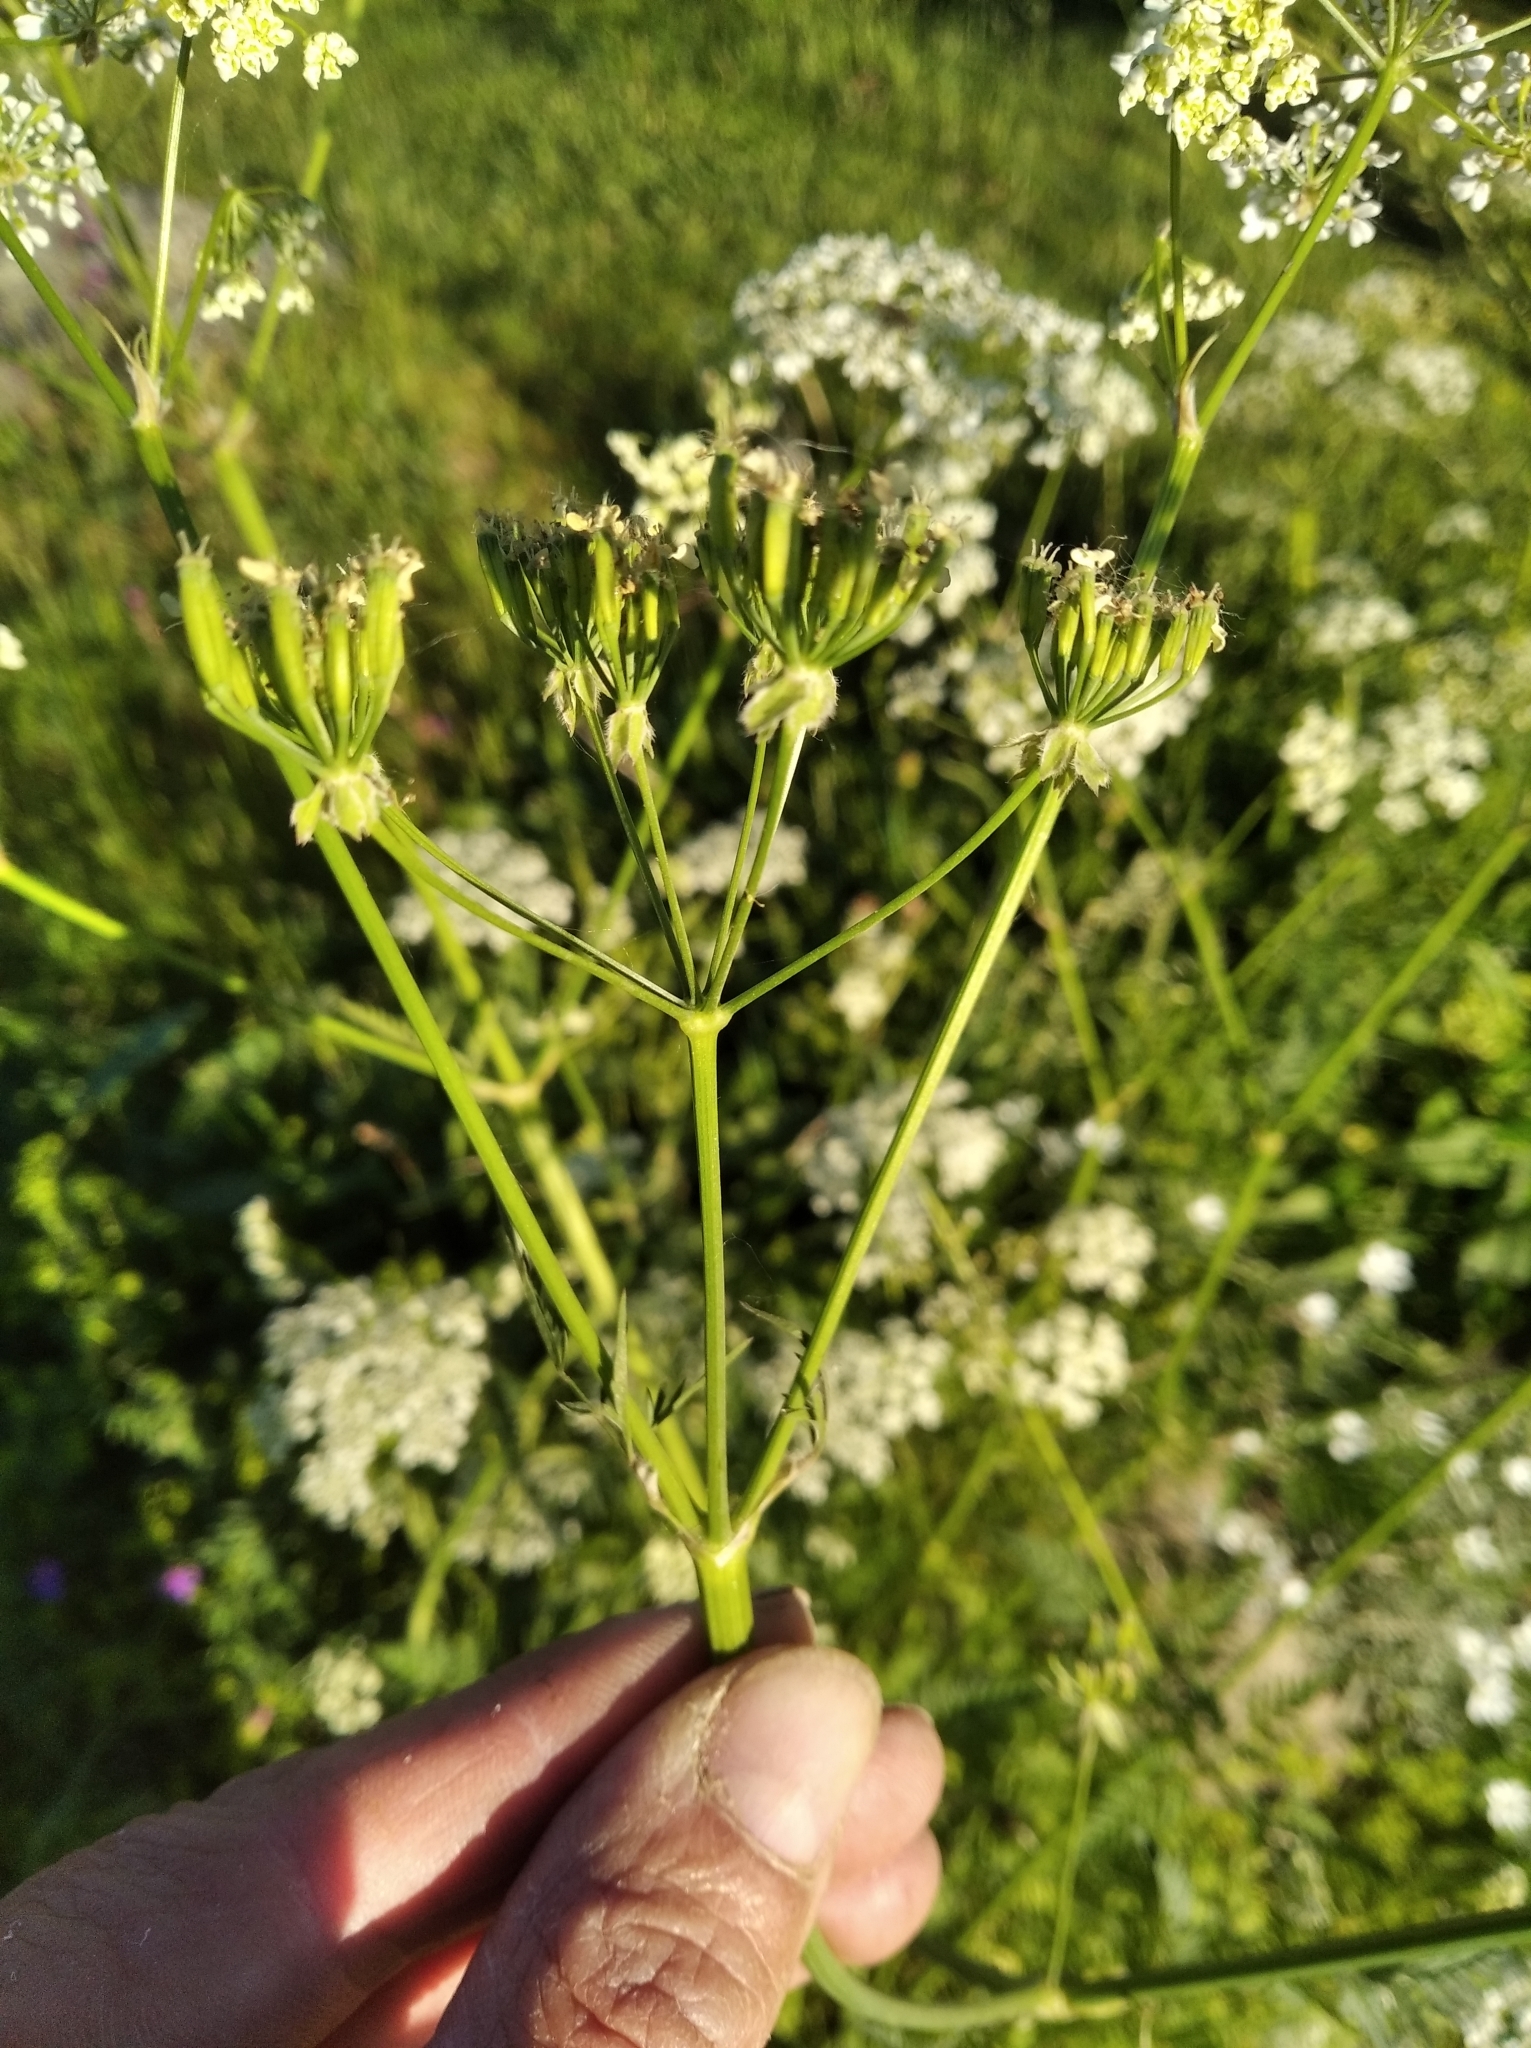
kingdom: Plantae
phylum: Tracheophyta
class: Magnoliopsida
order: Apiales
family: Apiaceae
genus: Anthriscus
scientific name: Anthriscus sylvestris
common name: Cow parsley
